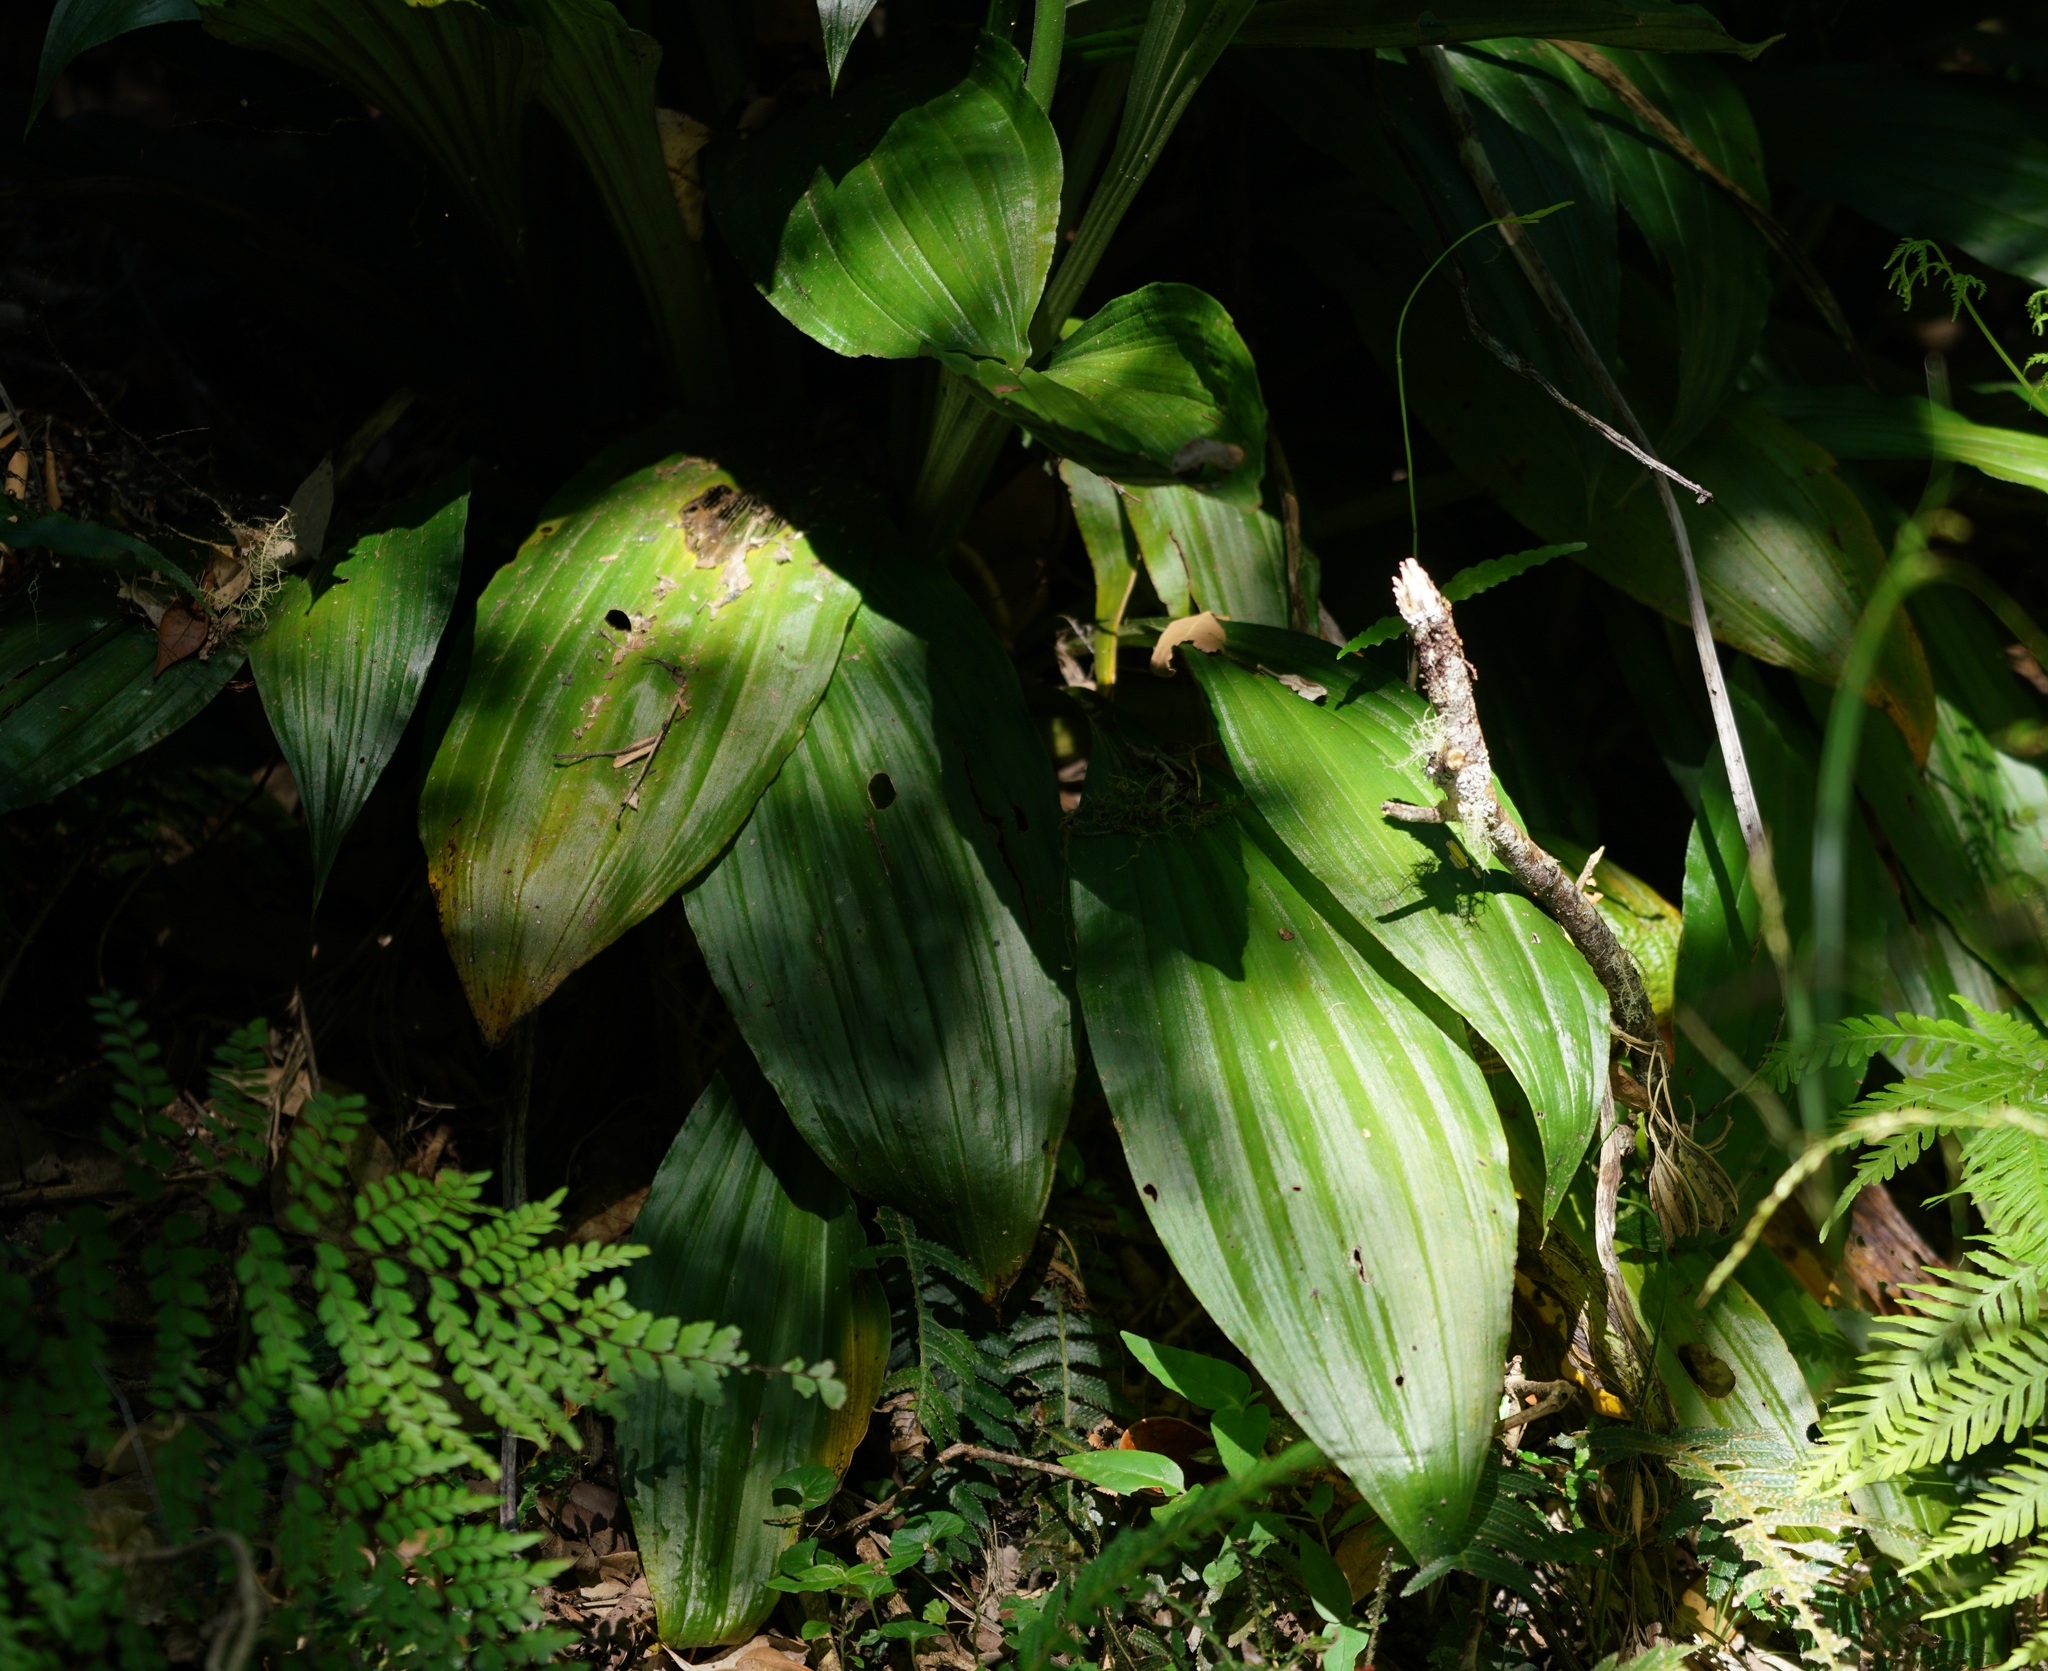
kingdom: Plantae
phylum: Tracheophyta
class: Liliopsida
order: Asparagales
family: Orchidaceae
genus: Calanthe
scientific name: Calanthe triplicata
